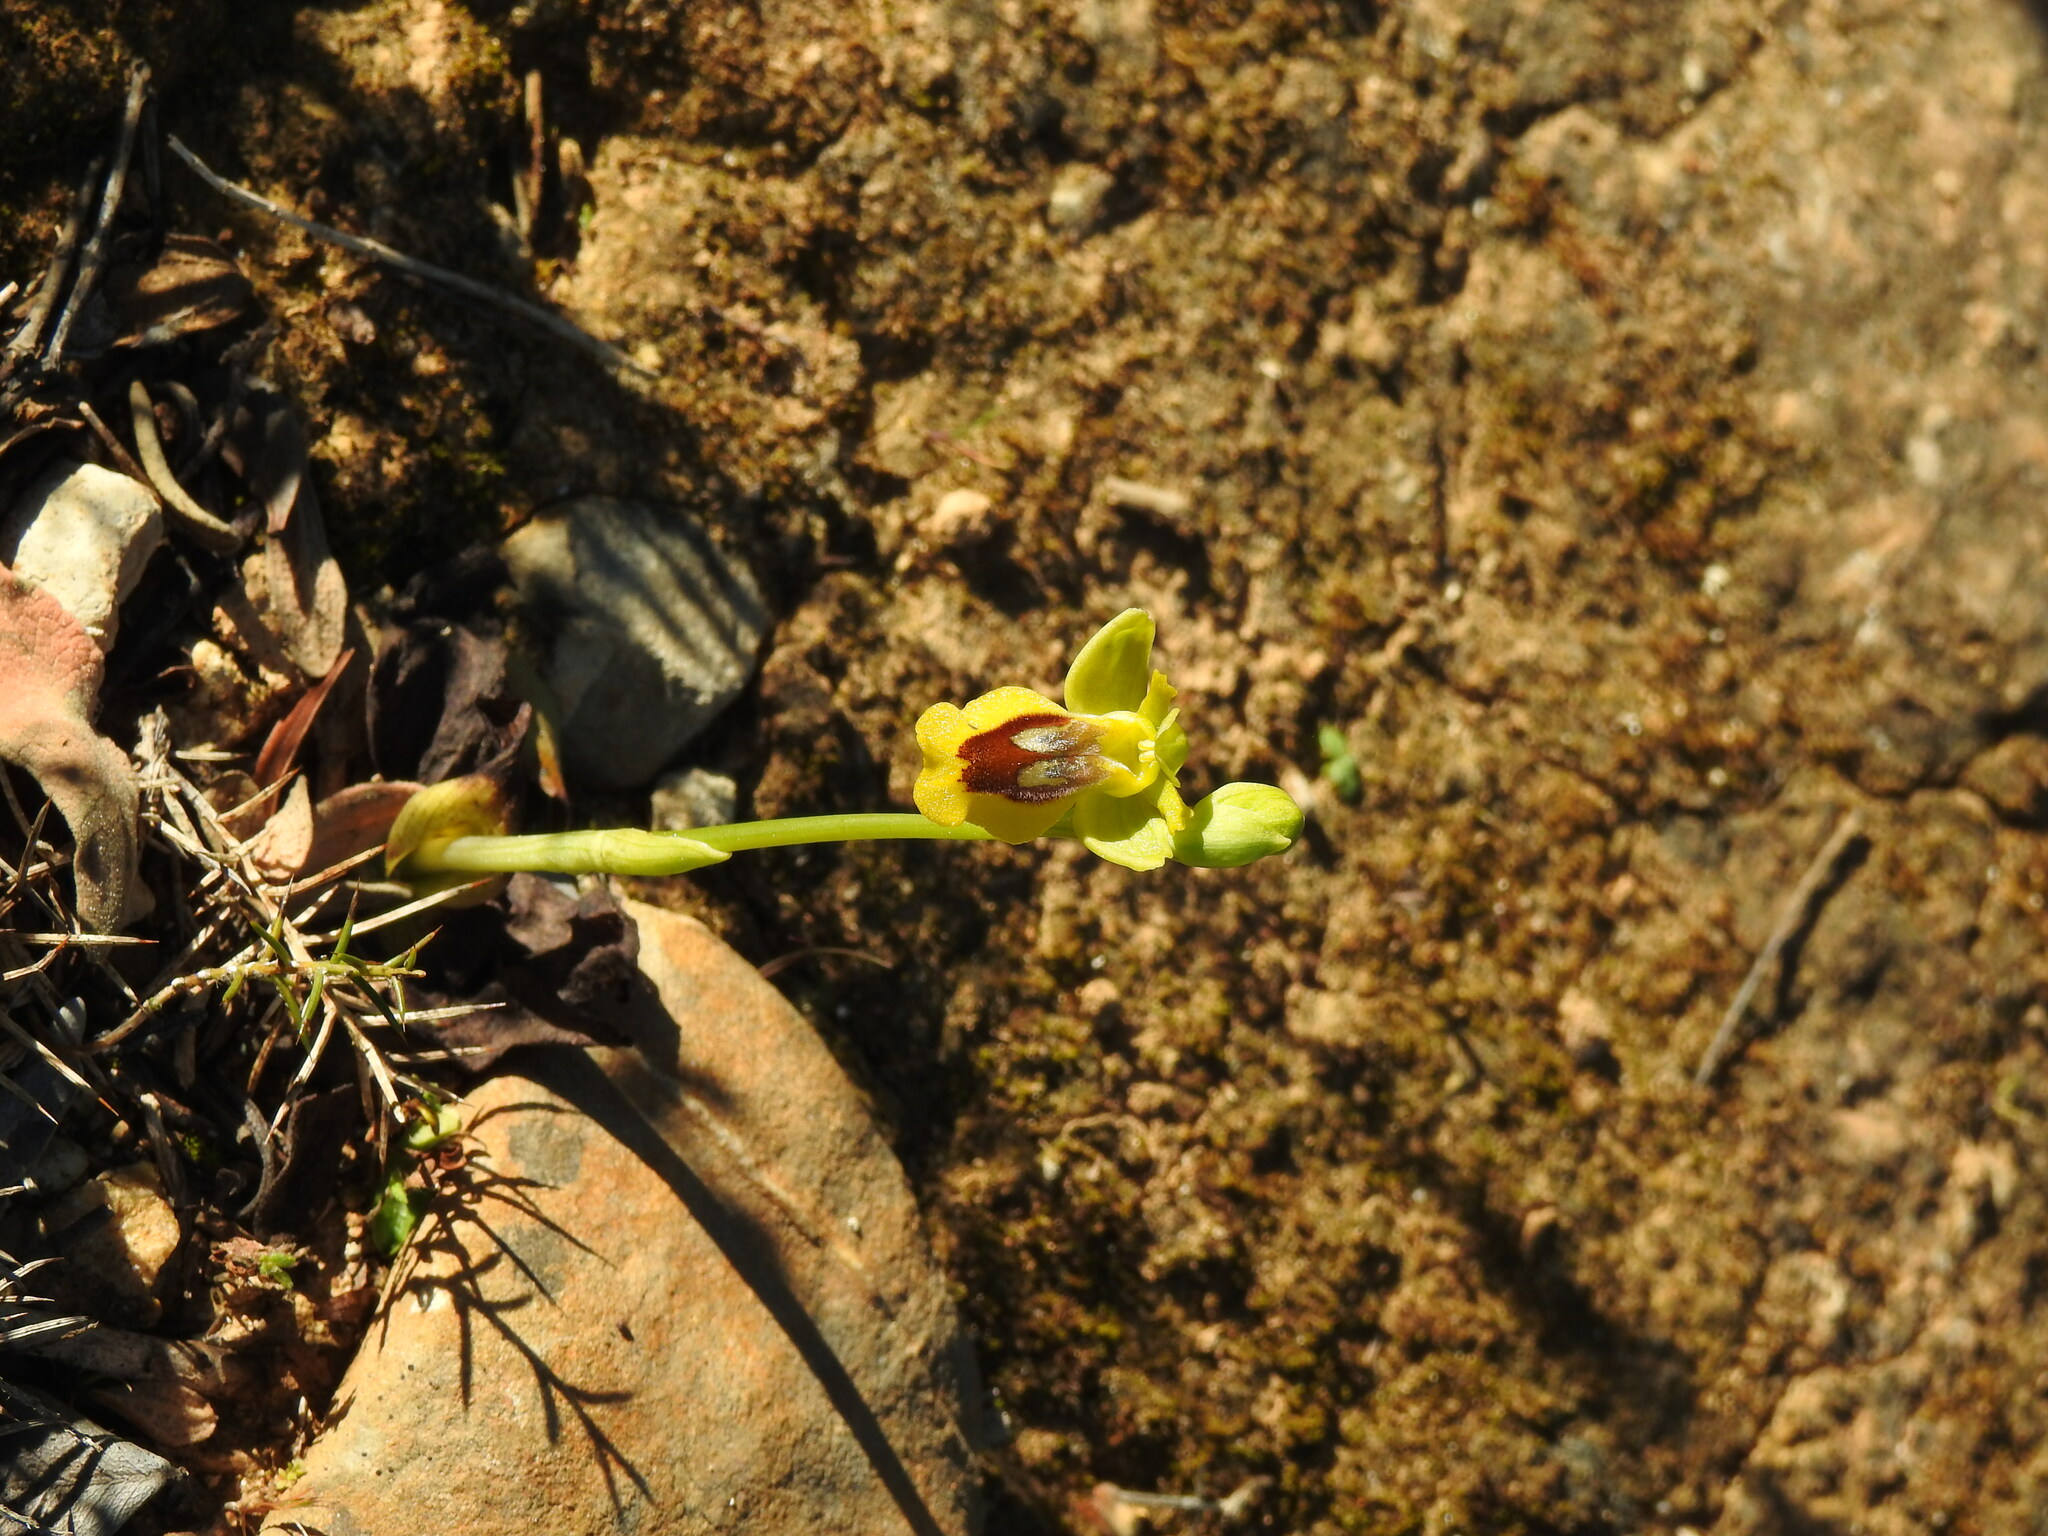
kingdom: Plantae
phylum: Tracheophyta
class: Liliopsida
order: Asparagales
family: Orchidaceae
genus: Ophrys
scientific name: Ophrys lutea
